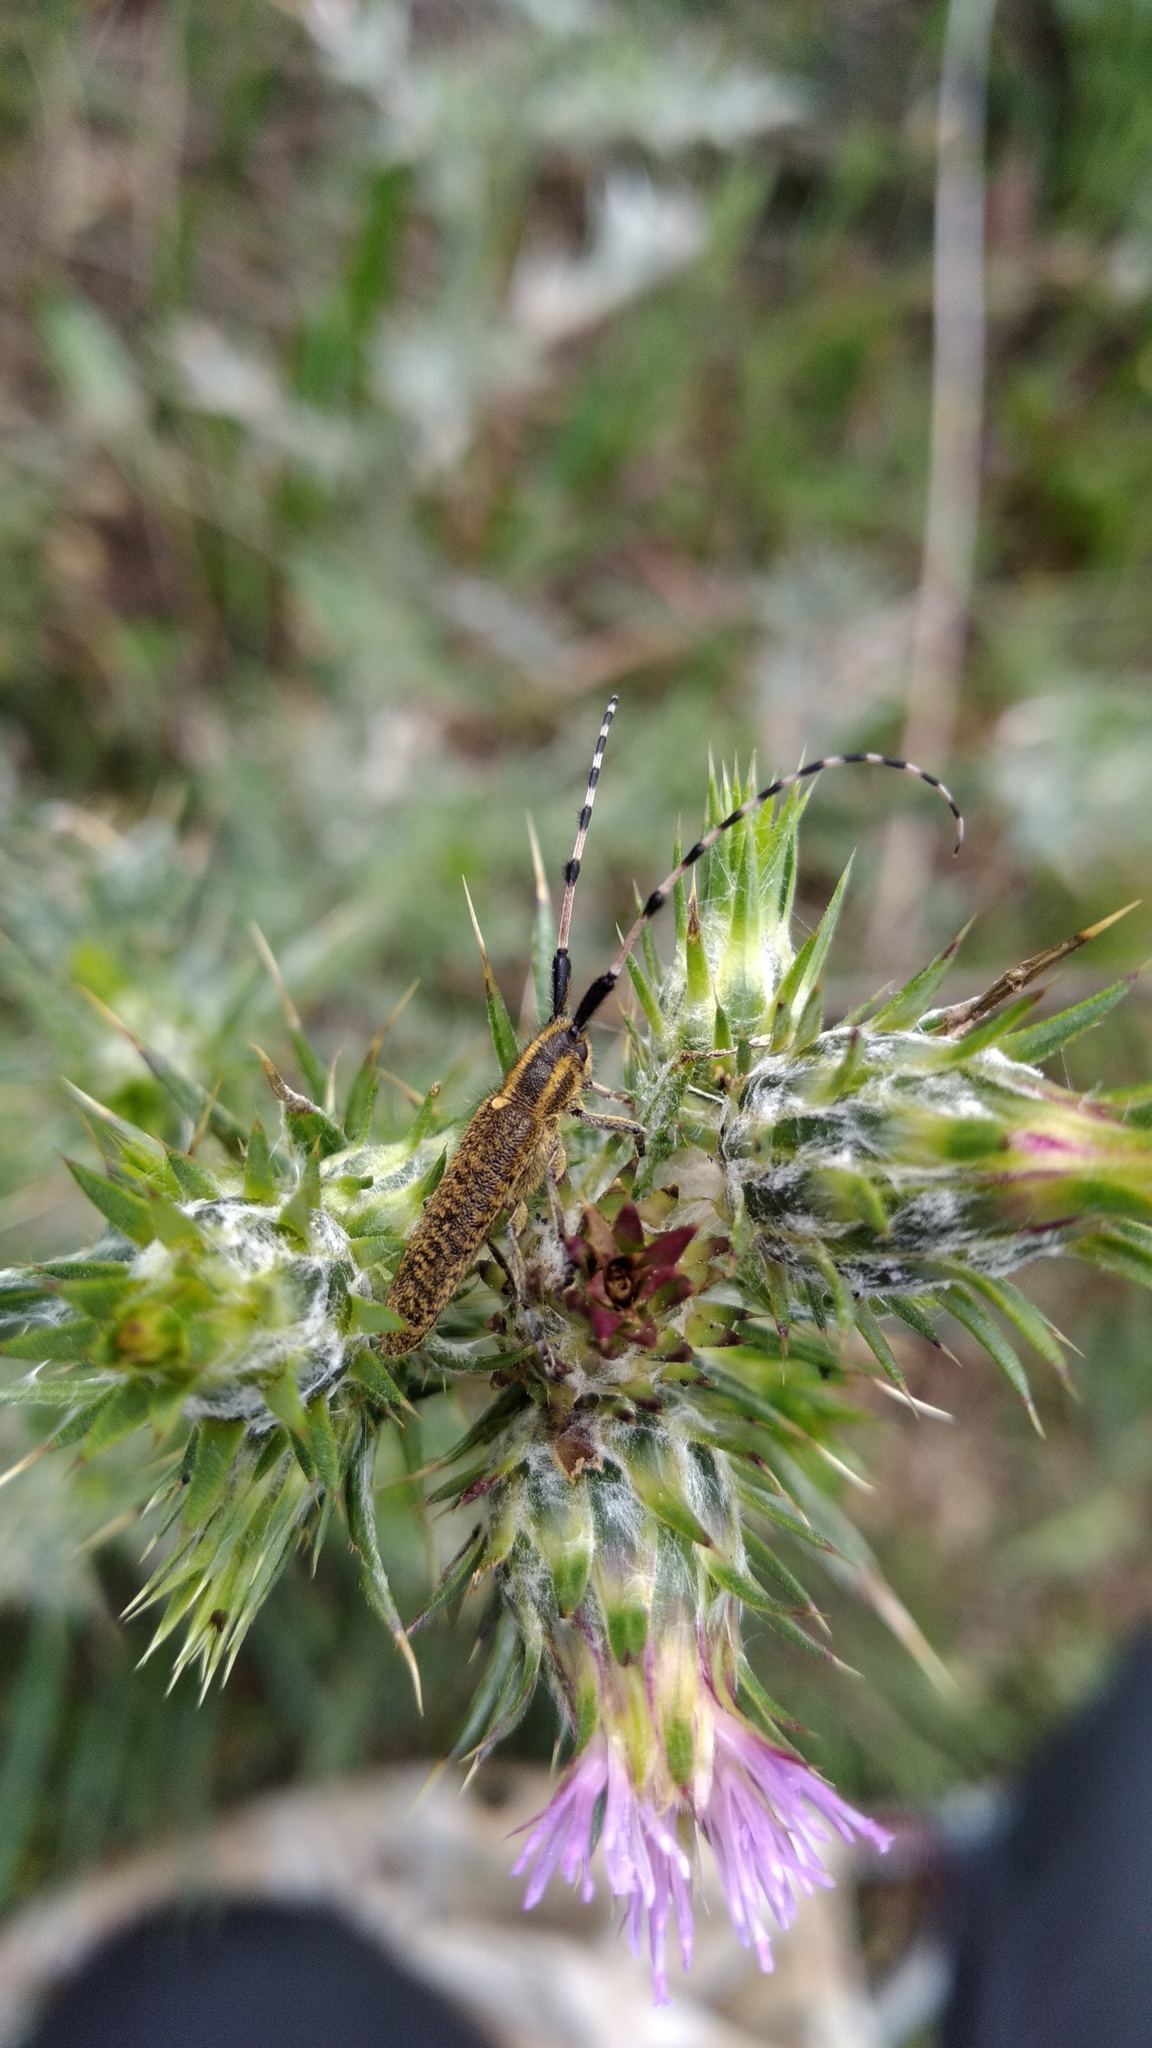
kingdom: Animalia
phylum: Arthropoda
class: Insecta
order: Coleoptera
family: Cerambycidae
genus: Agapanthia
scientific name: Agapanthia dahlii
